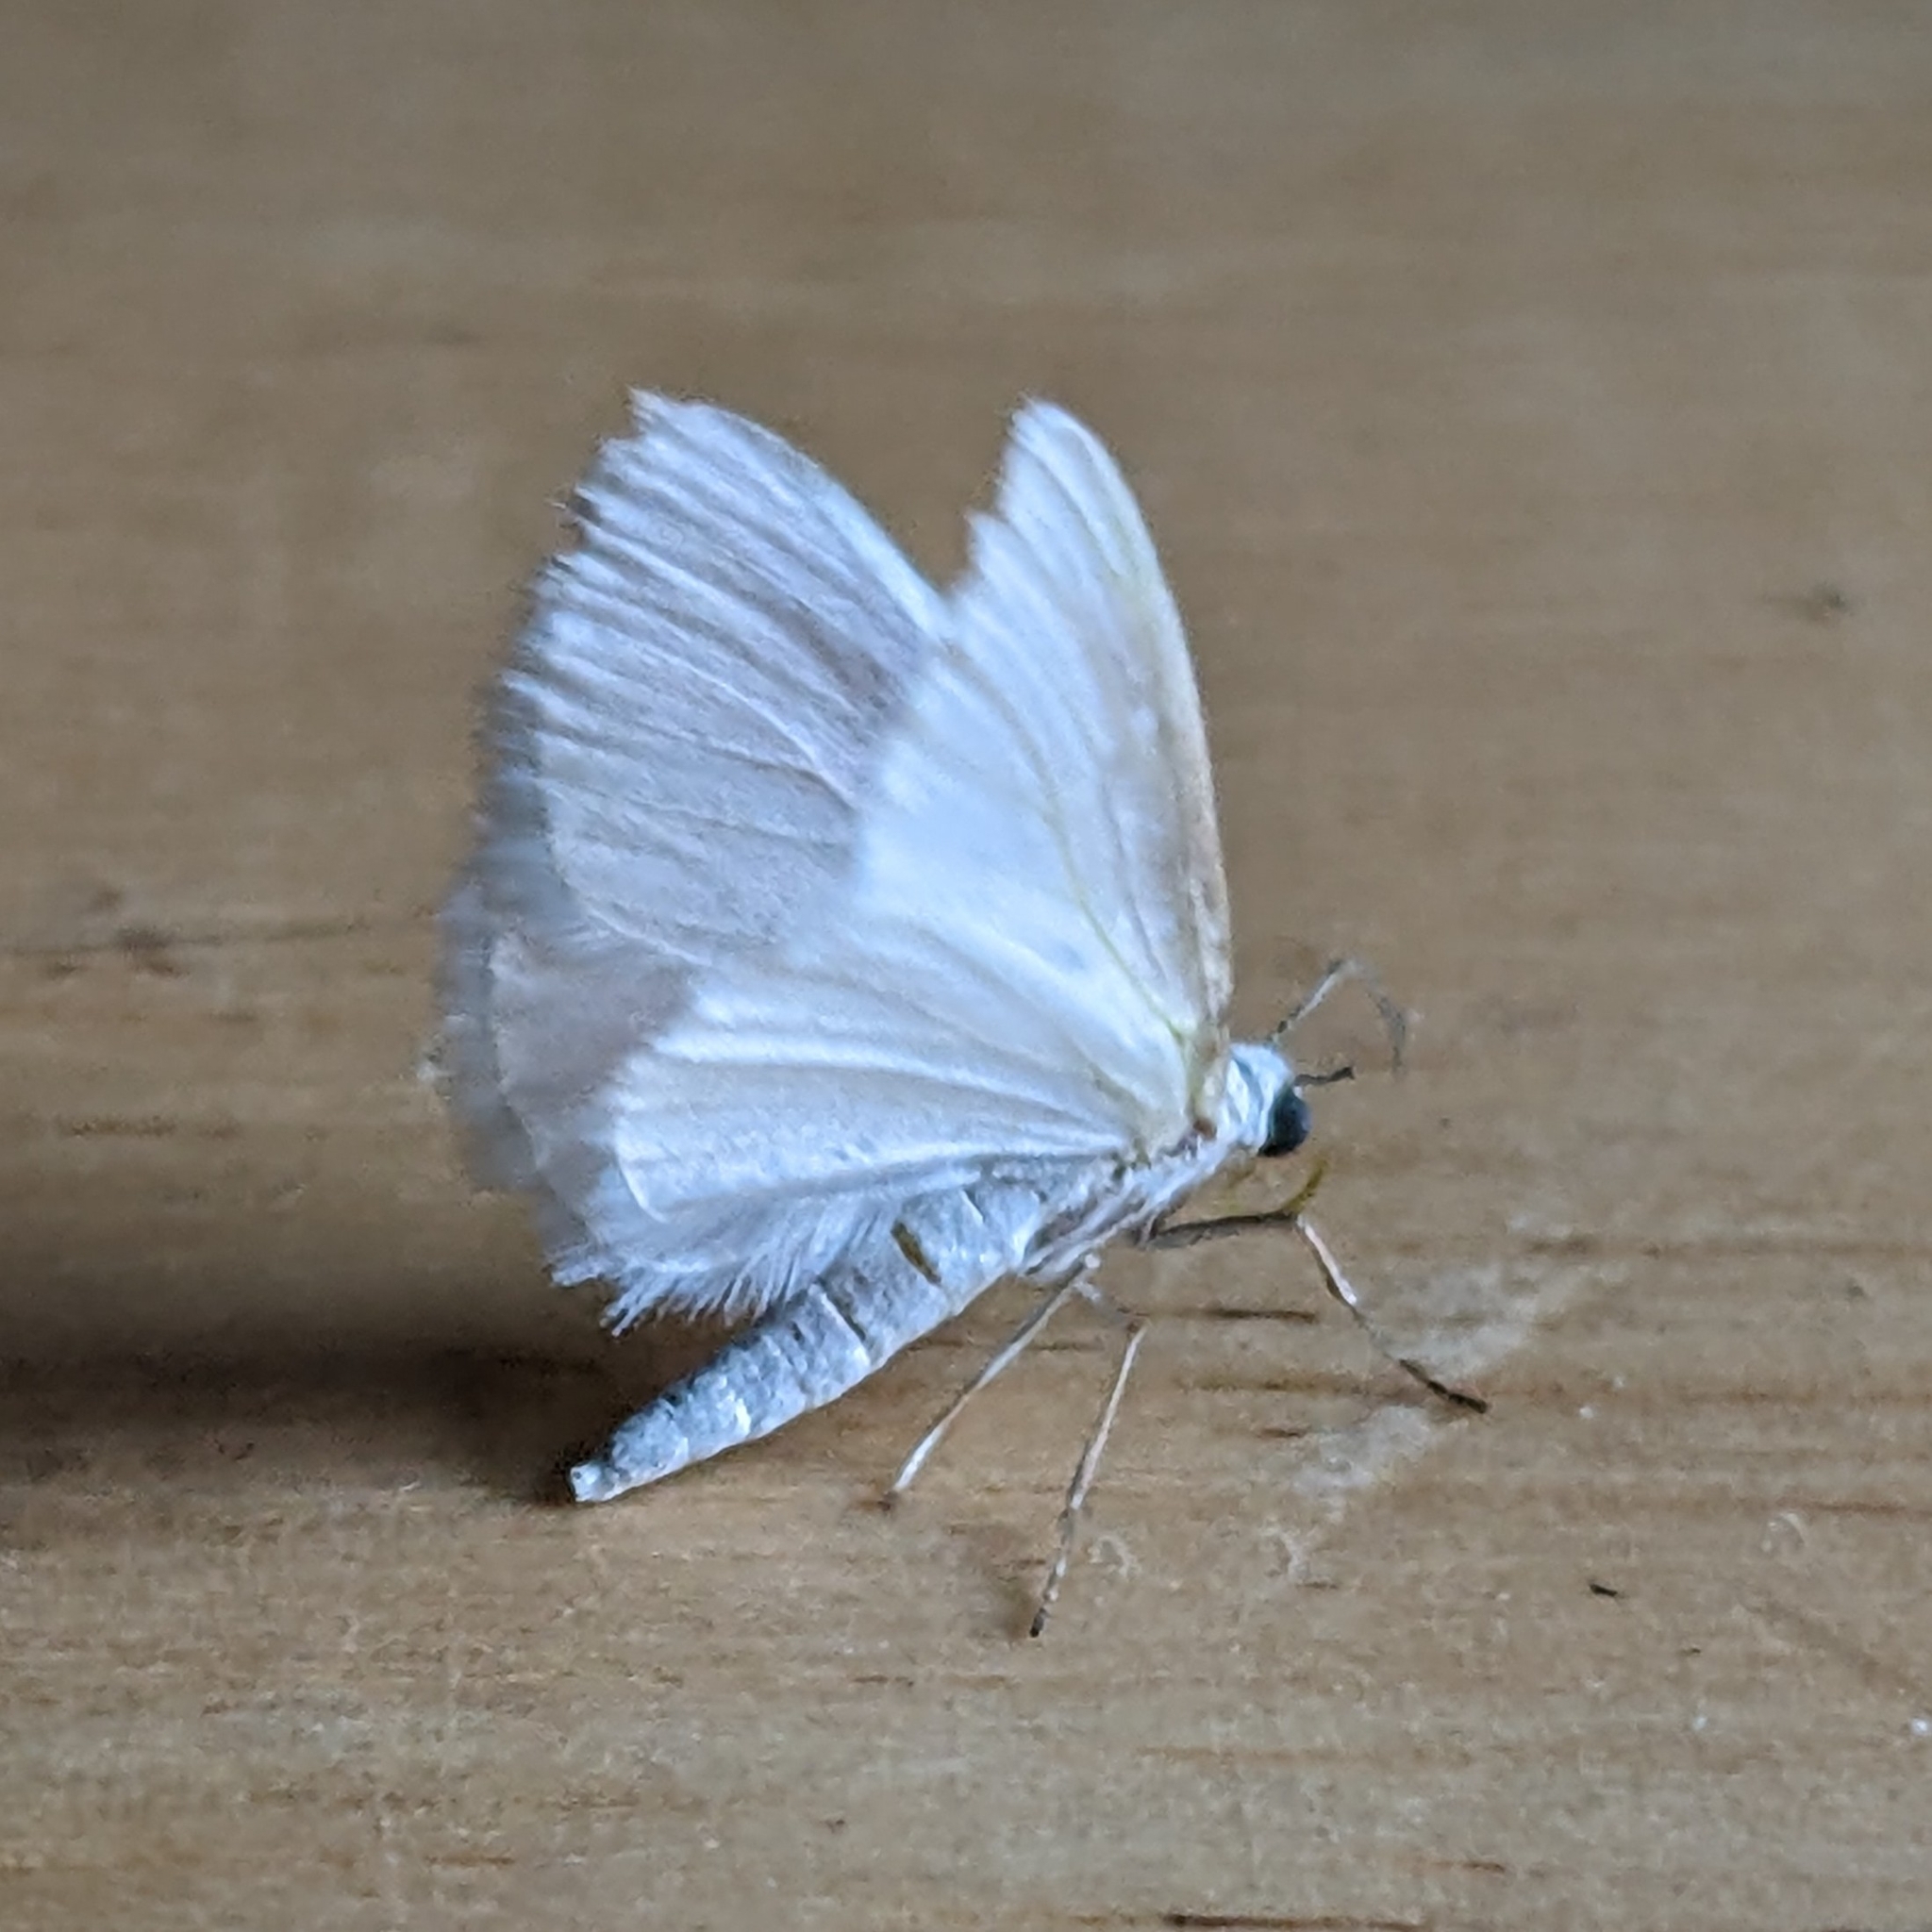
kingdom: Animalia
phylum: Arthropoda
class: Insecta
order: Lepidoptera
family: Geometridae
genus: Lomographa
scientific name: Lomographa vestaliata
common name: White spring moth
